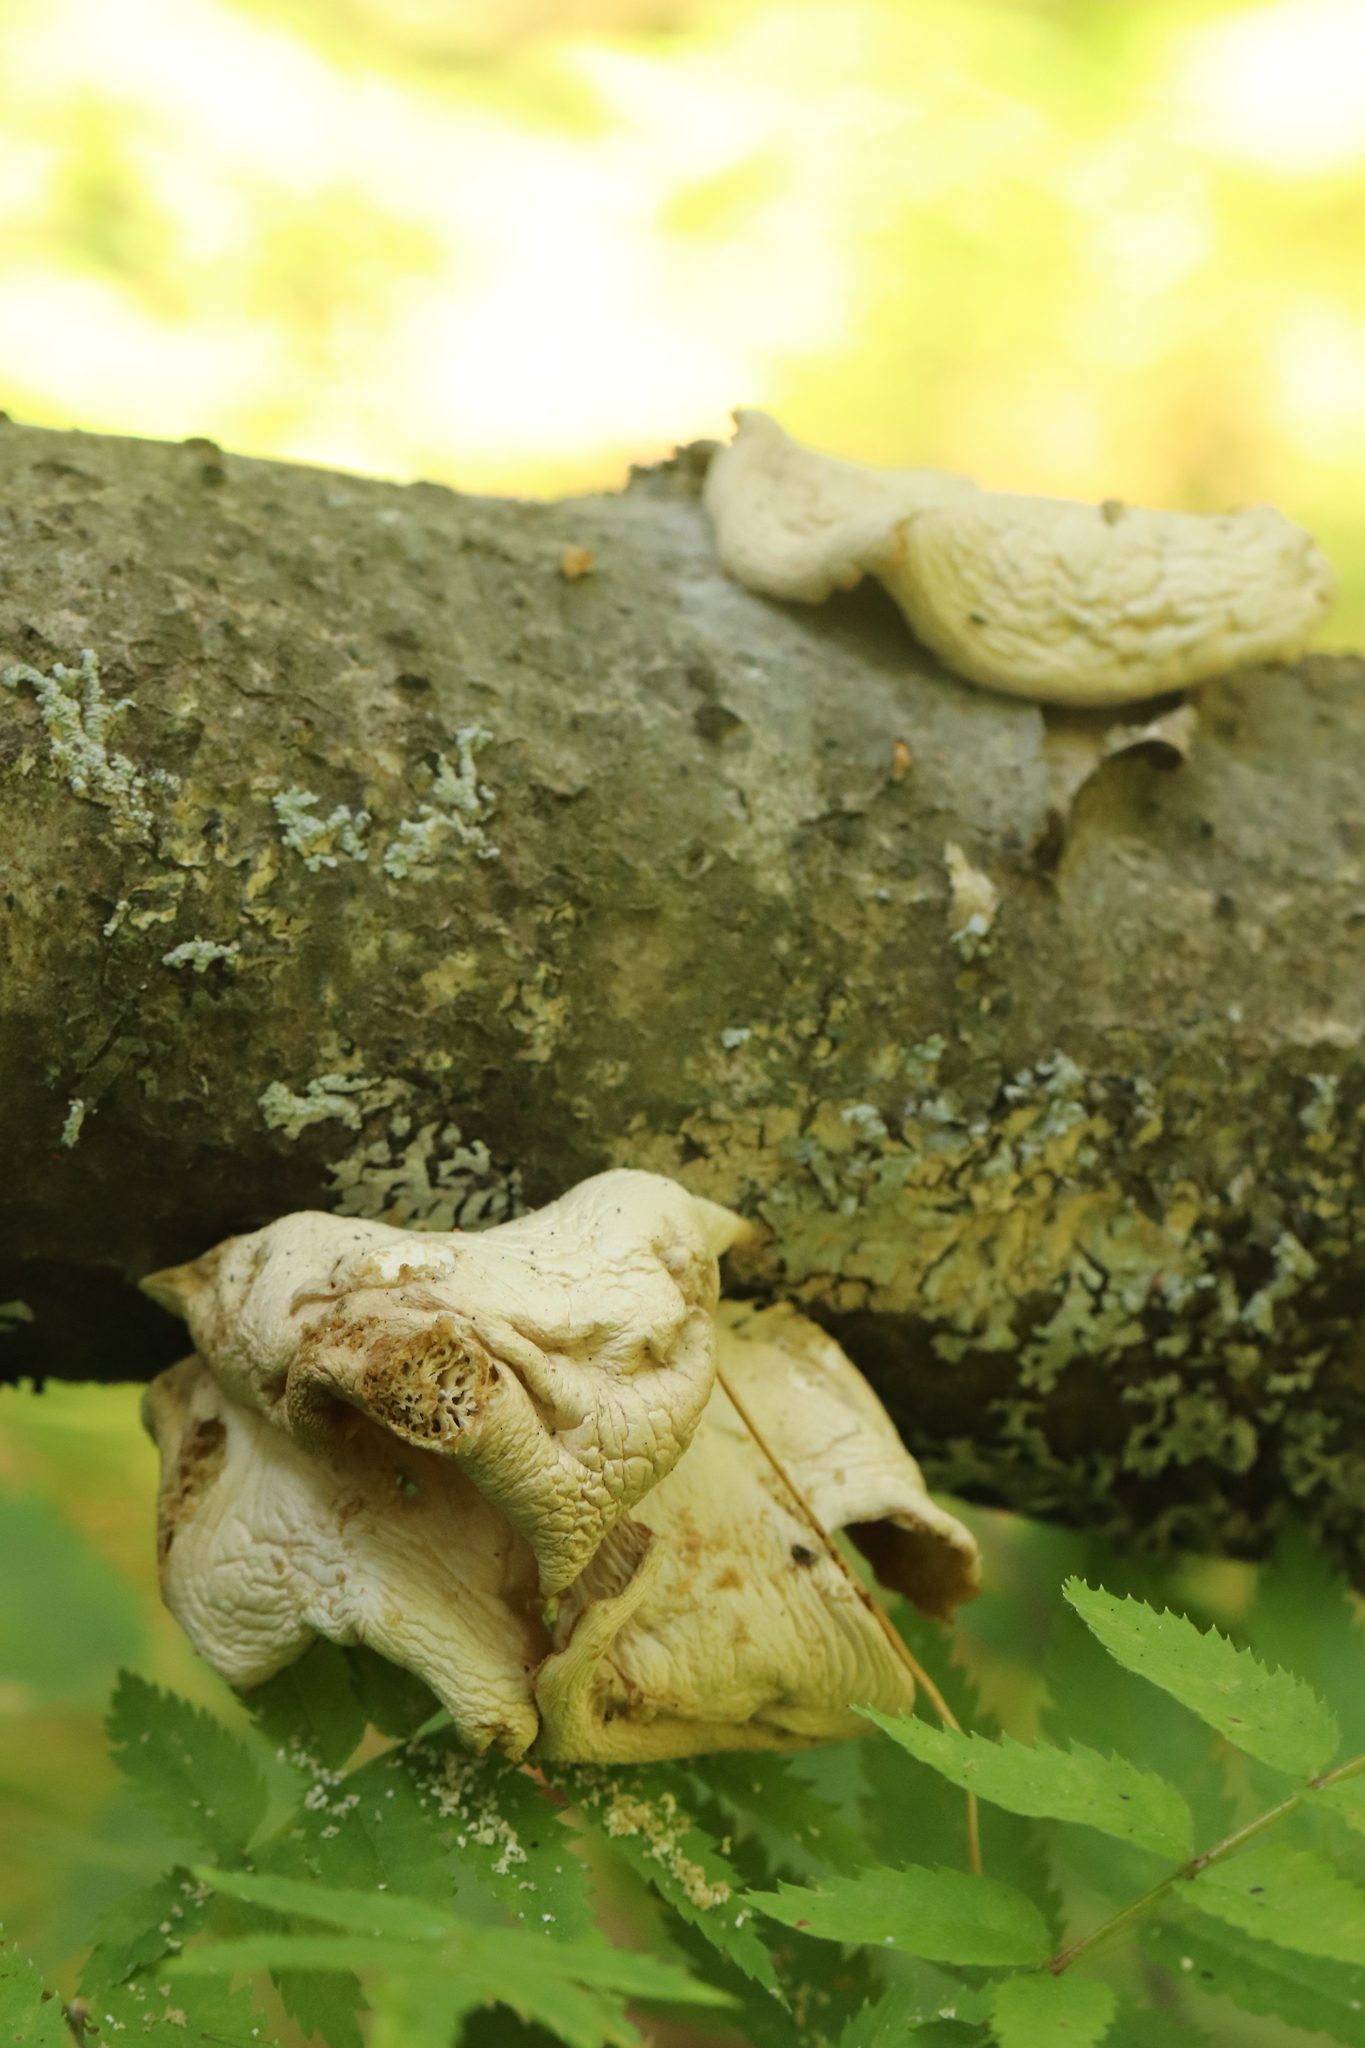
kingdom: Fungi
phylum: Basidiomycota
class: Agaricomycetes
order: Agaricales
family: Pleurotaceae
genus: Pleurotus
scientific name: Pleurotus pulmonarius
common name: Pale oyster
